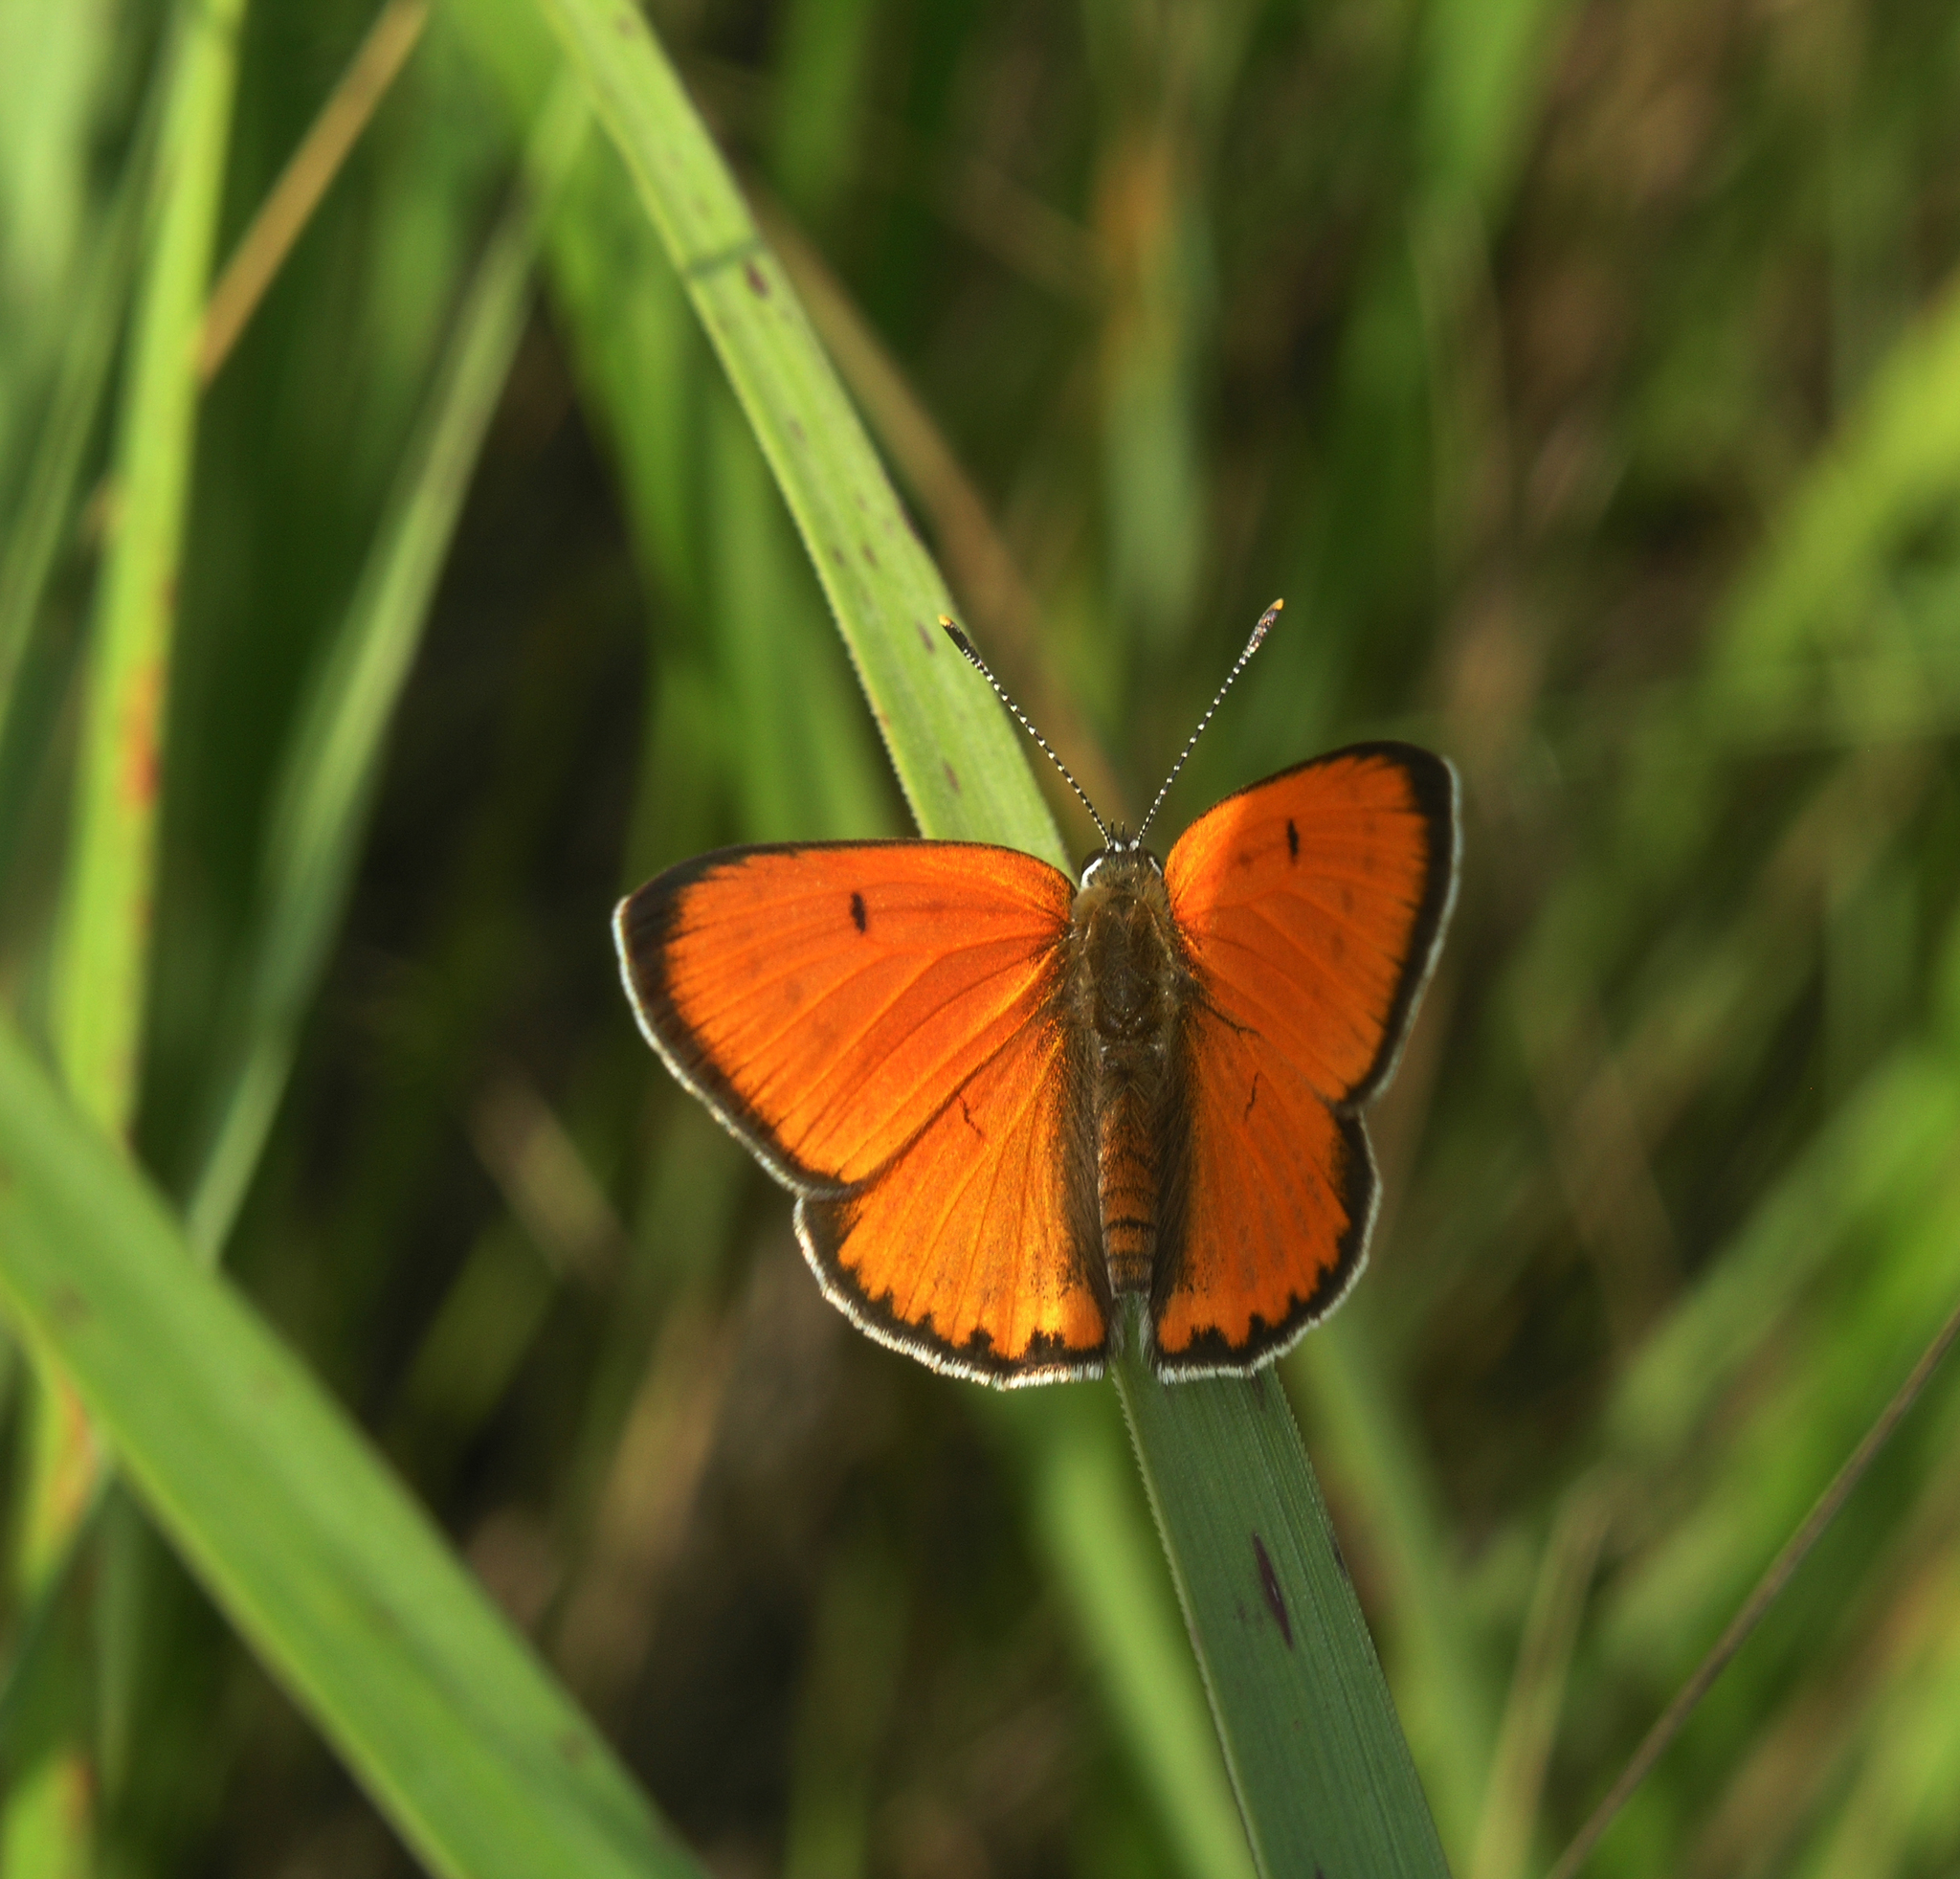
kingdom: Animalia
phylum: Arthropoda
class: Insecta
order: Lepidoptera
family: Lycaenidae
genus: Lycaena
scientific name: Lycaena dispar
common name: Large copper
